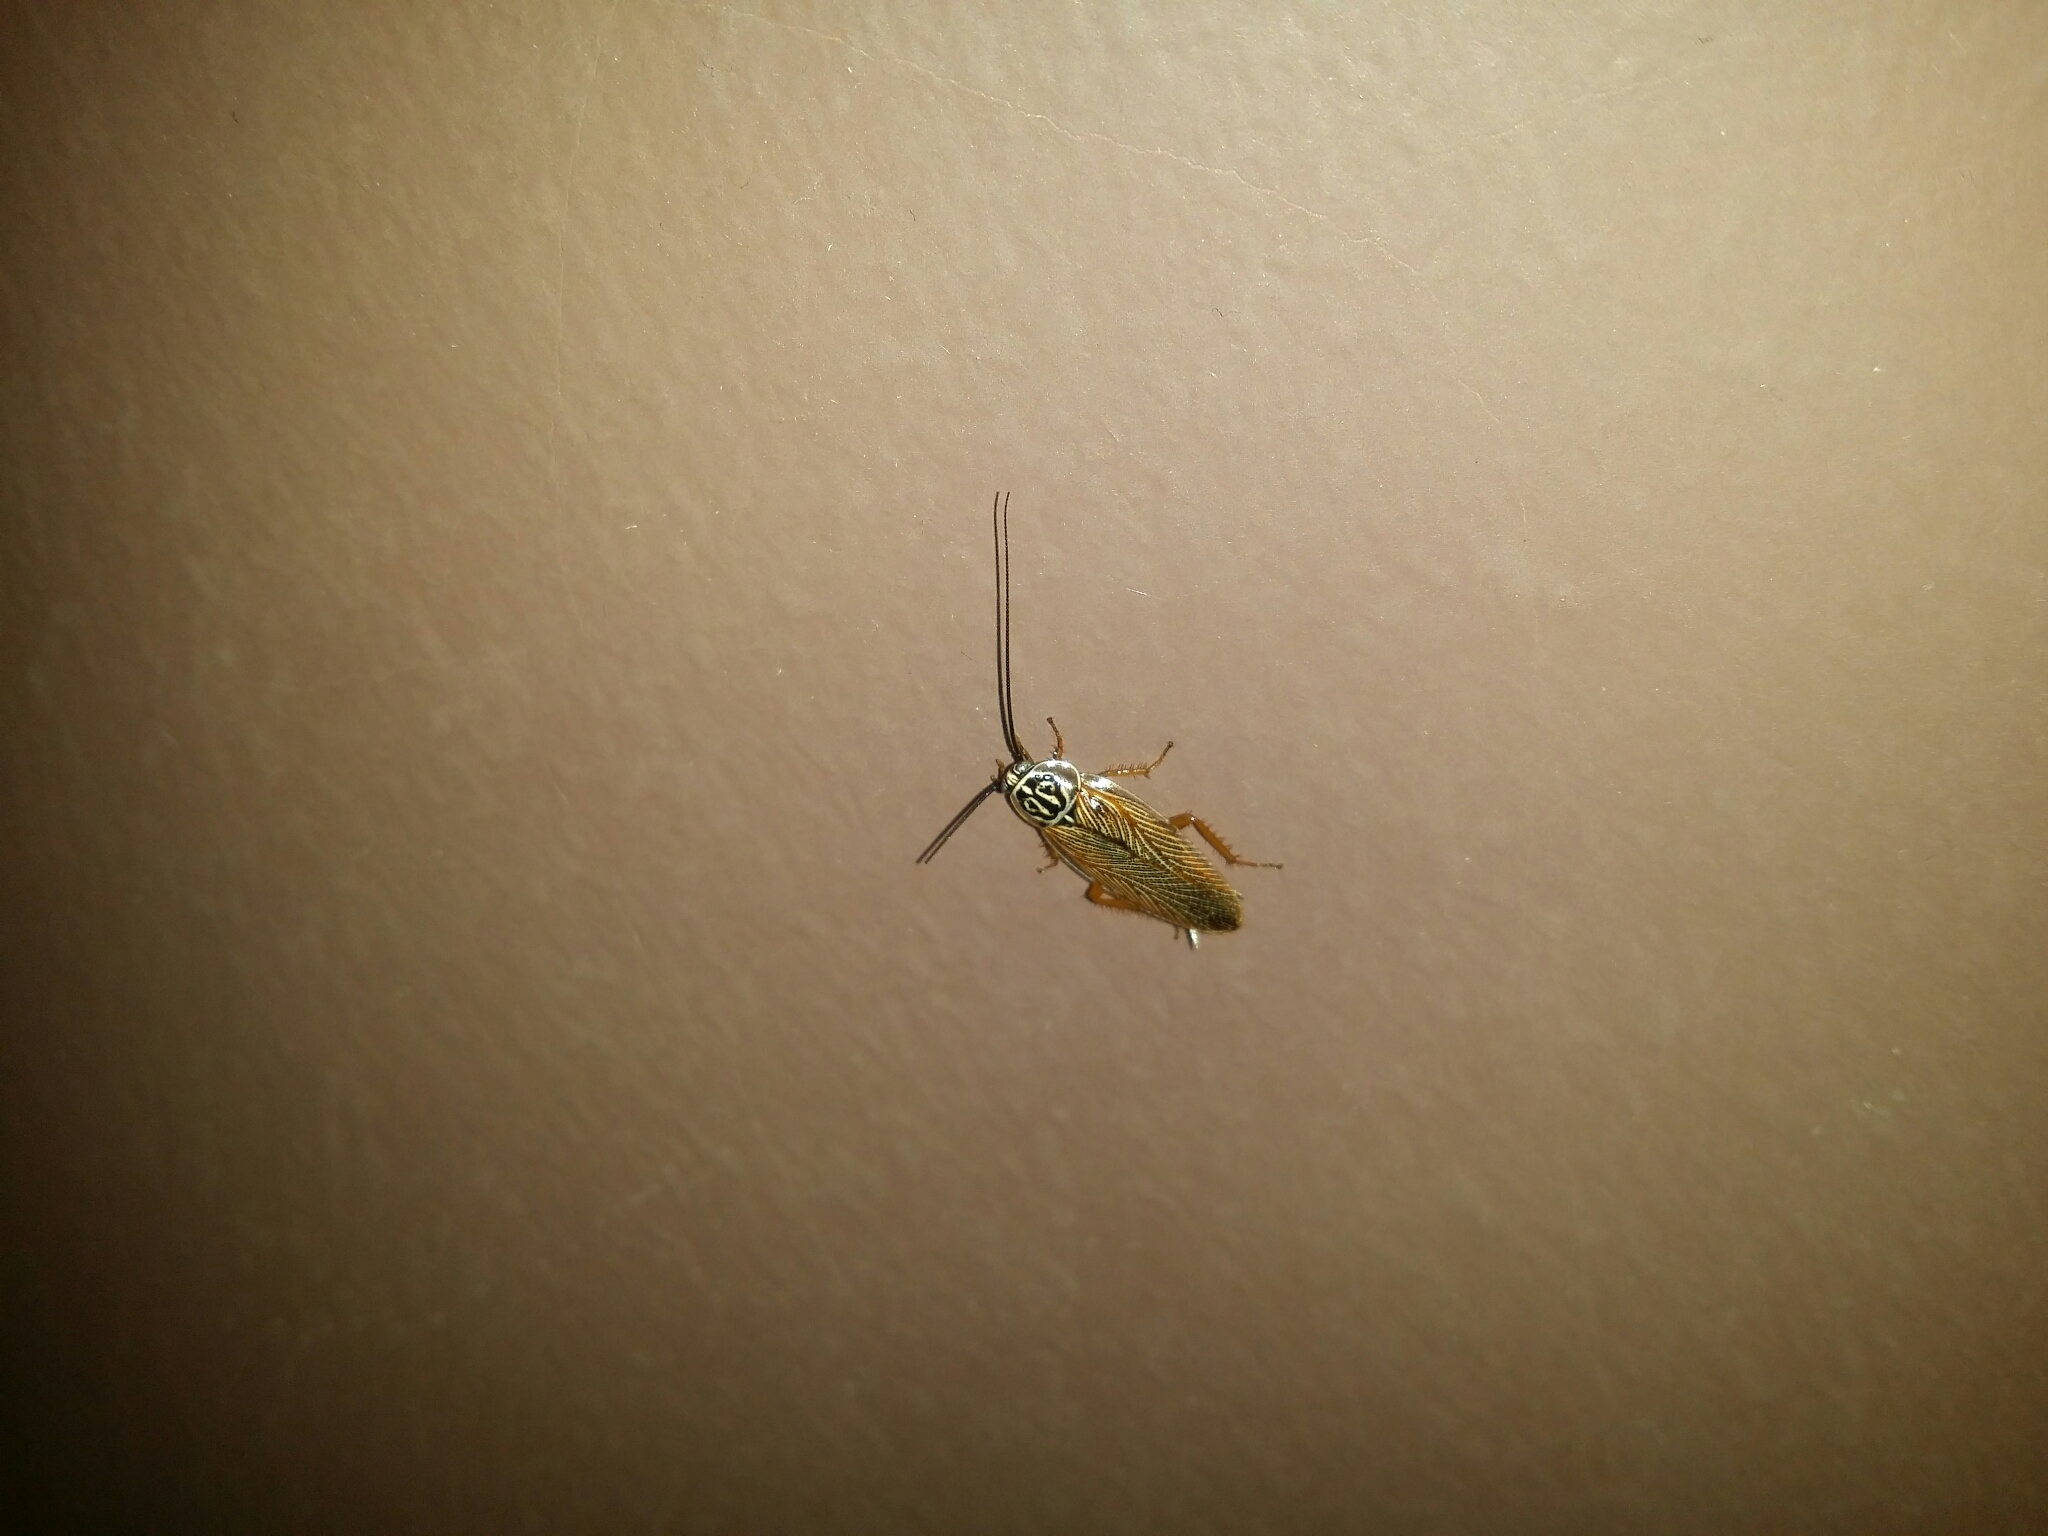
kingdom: Animalia
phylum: Arthropoda
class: Insecta
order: Blattodea
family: Ectobiidae
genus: Balta
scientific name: Balta hebardi
